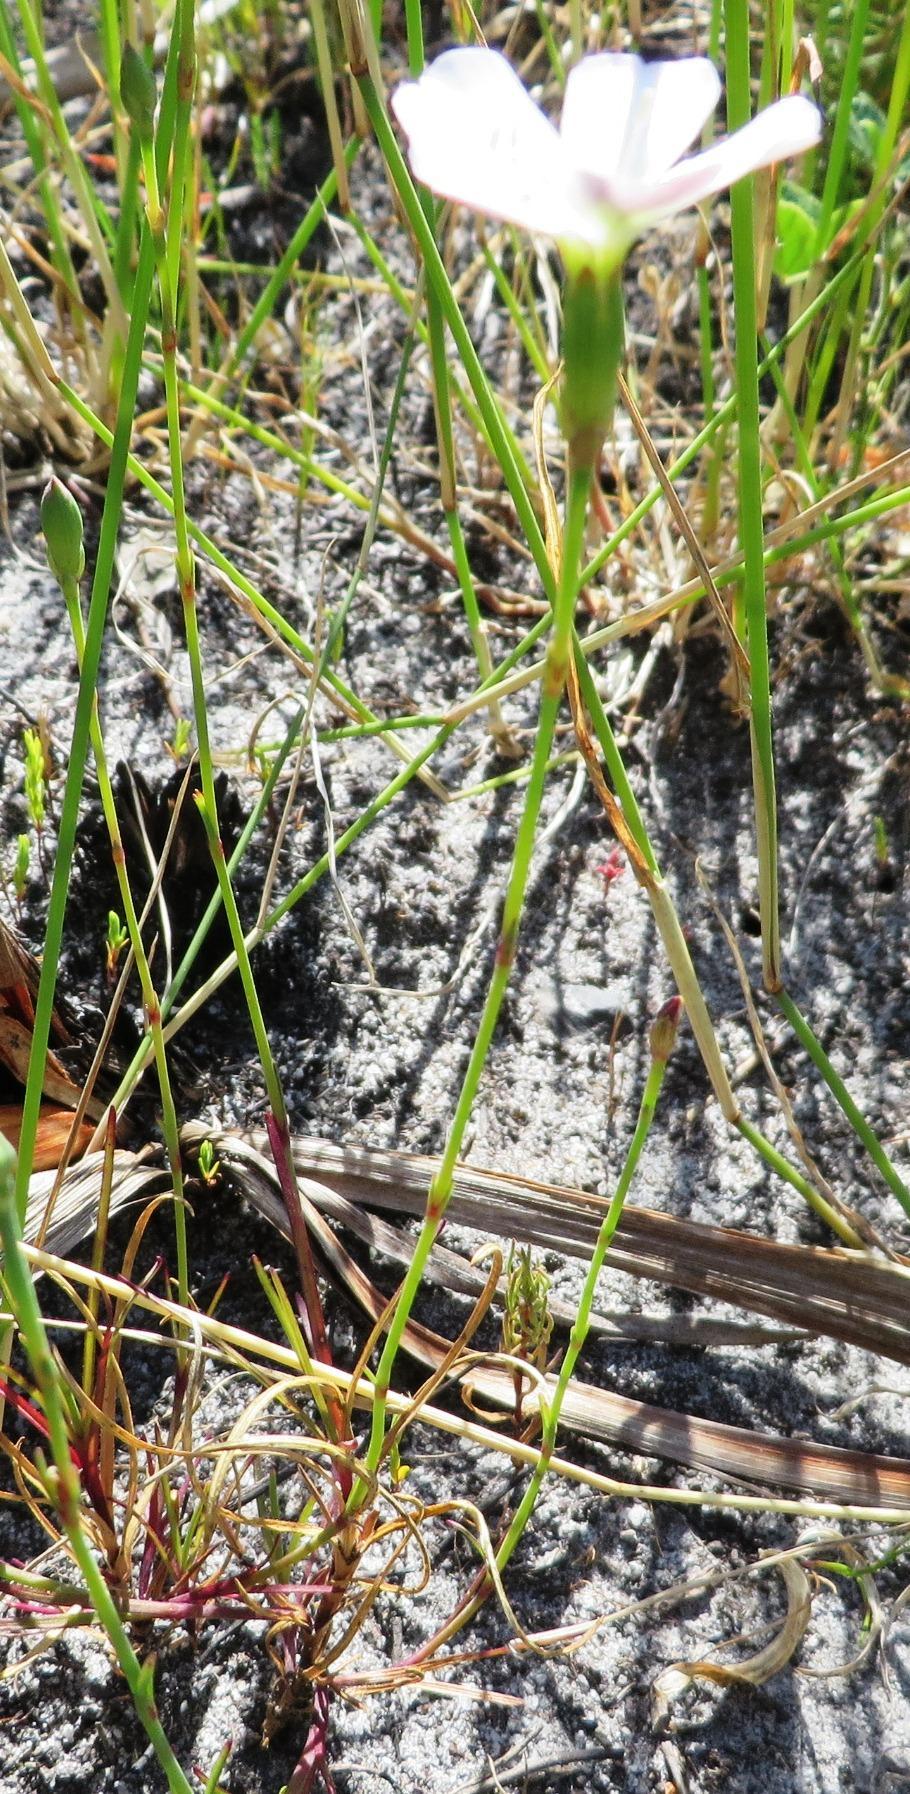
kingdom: Plantae
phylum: Tracheophyta
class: Magnoliopsida
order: Caryophyllales
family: Caryophyllaceae
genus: Dianthus
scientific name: Dianthus albens
